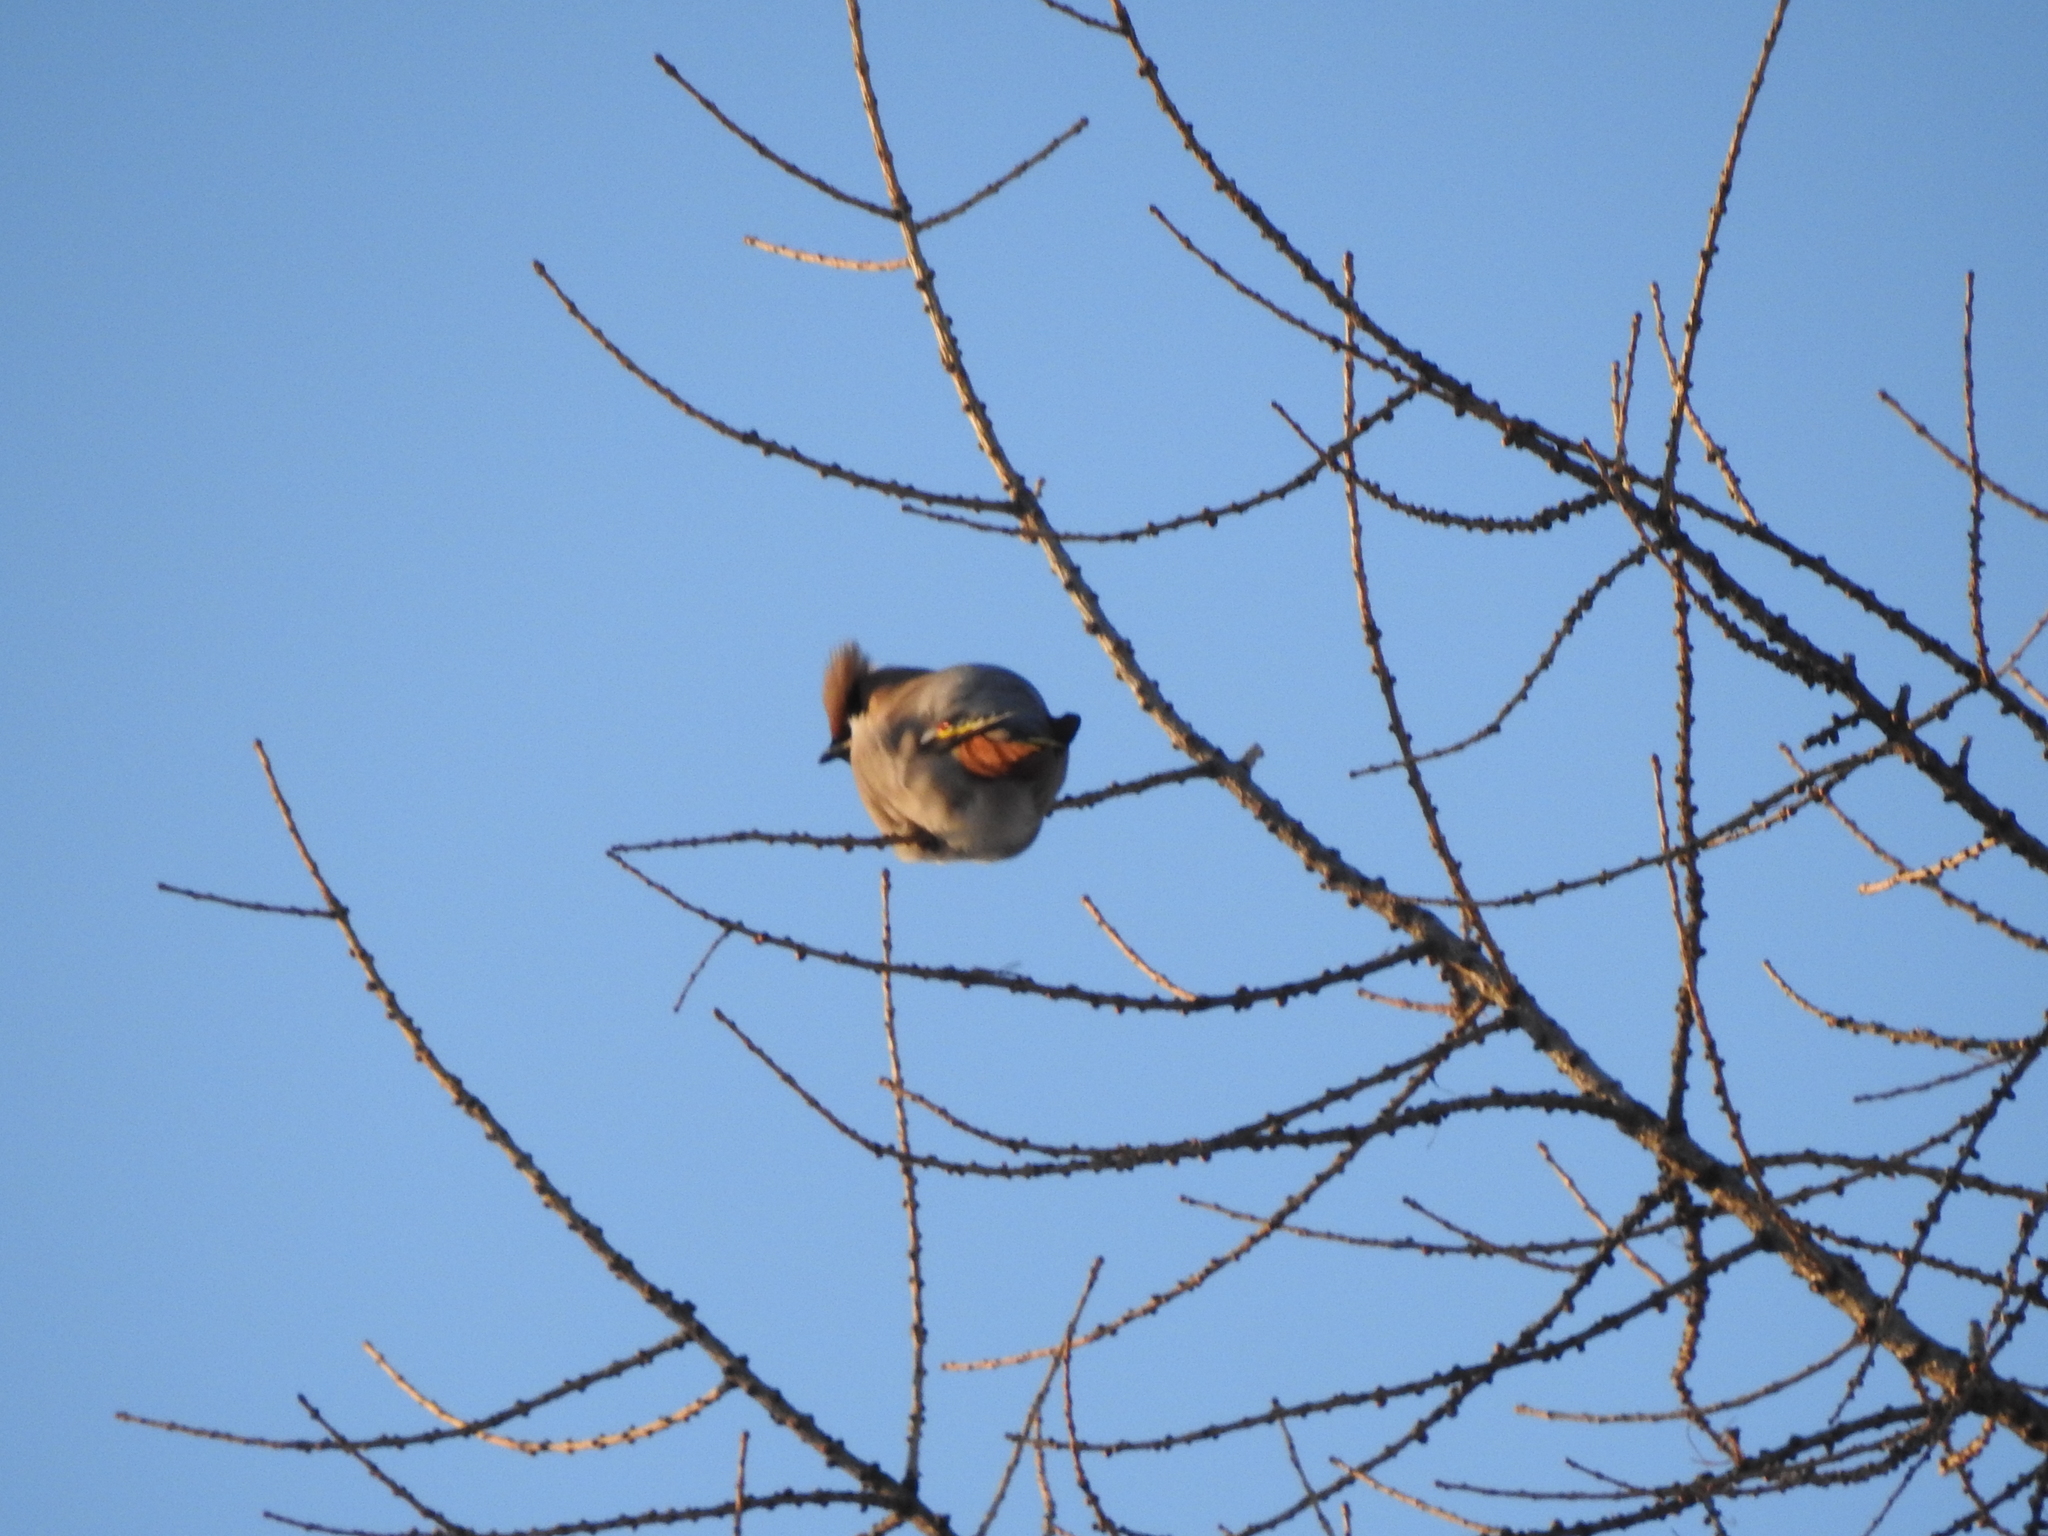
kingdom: Animalia
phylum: Chordata
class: Aves
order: Passeriformes
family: Bombycillidae
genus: Bombycilla
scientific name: Bombycilla garrulus
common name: Bohemian waxwing
